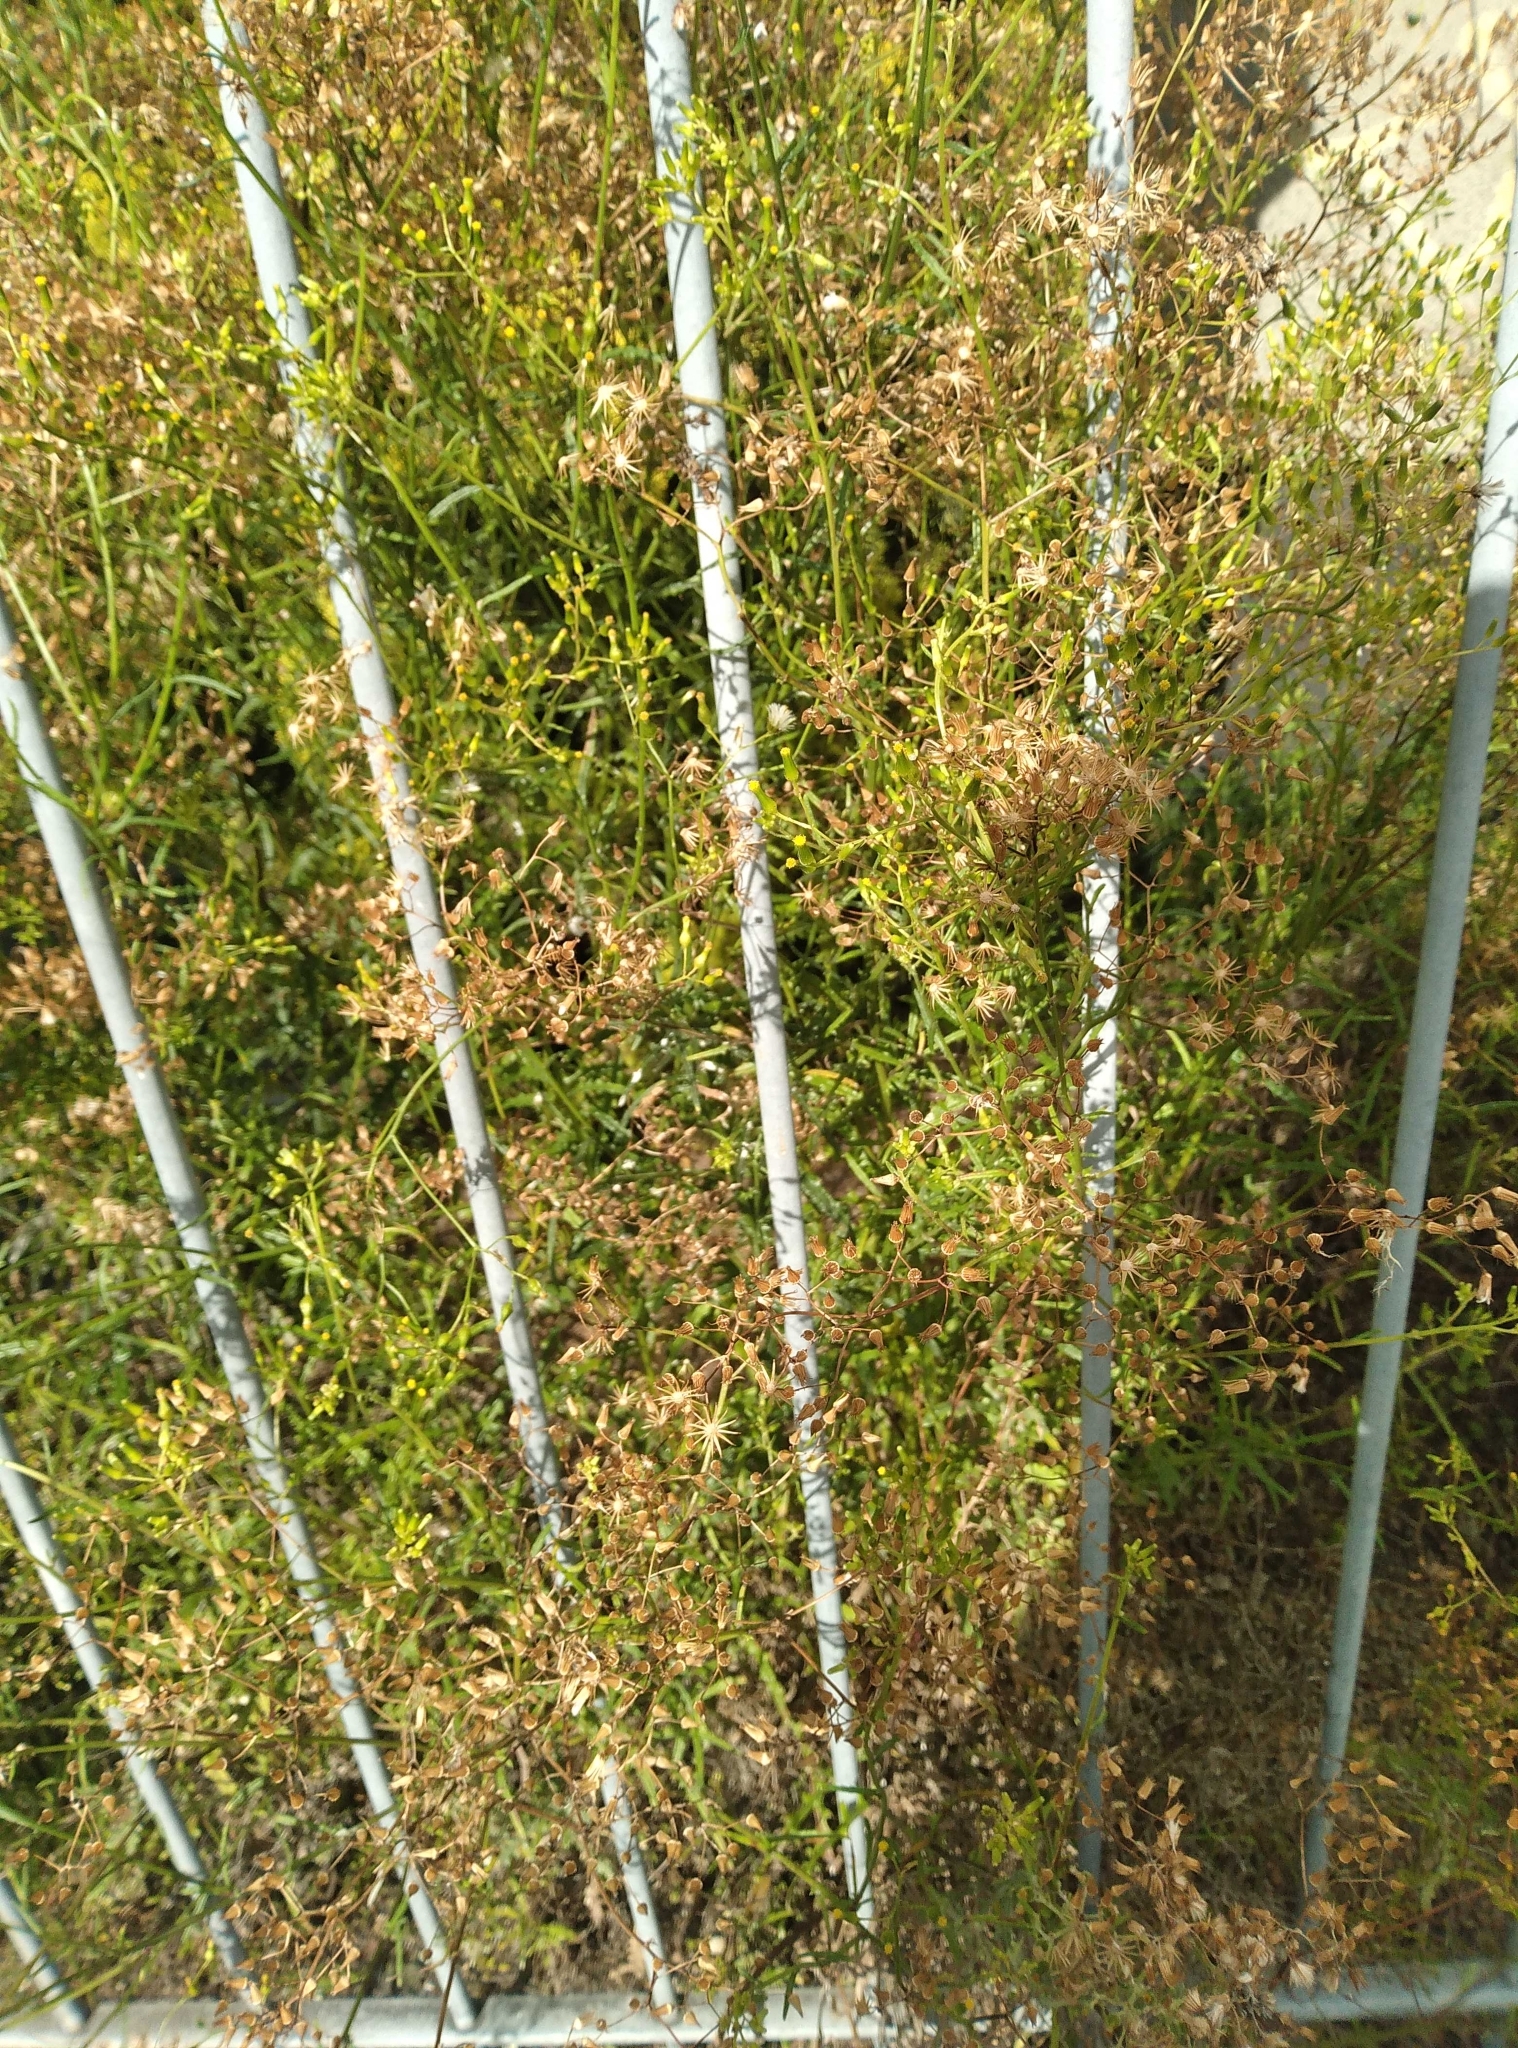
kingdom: Plantae
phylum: Tracheophyta
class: Magnoliopsida
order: Asterales
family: Asteraceae
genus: Senecio
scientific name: Senecio hispidulus
